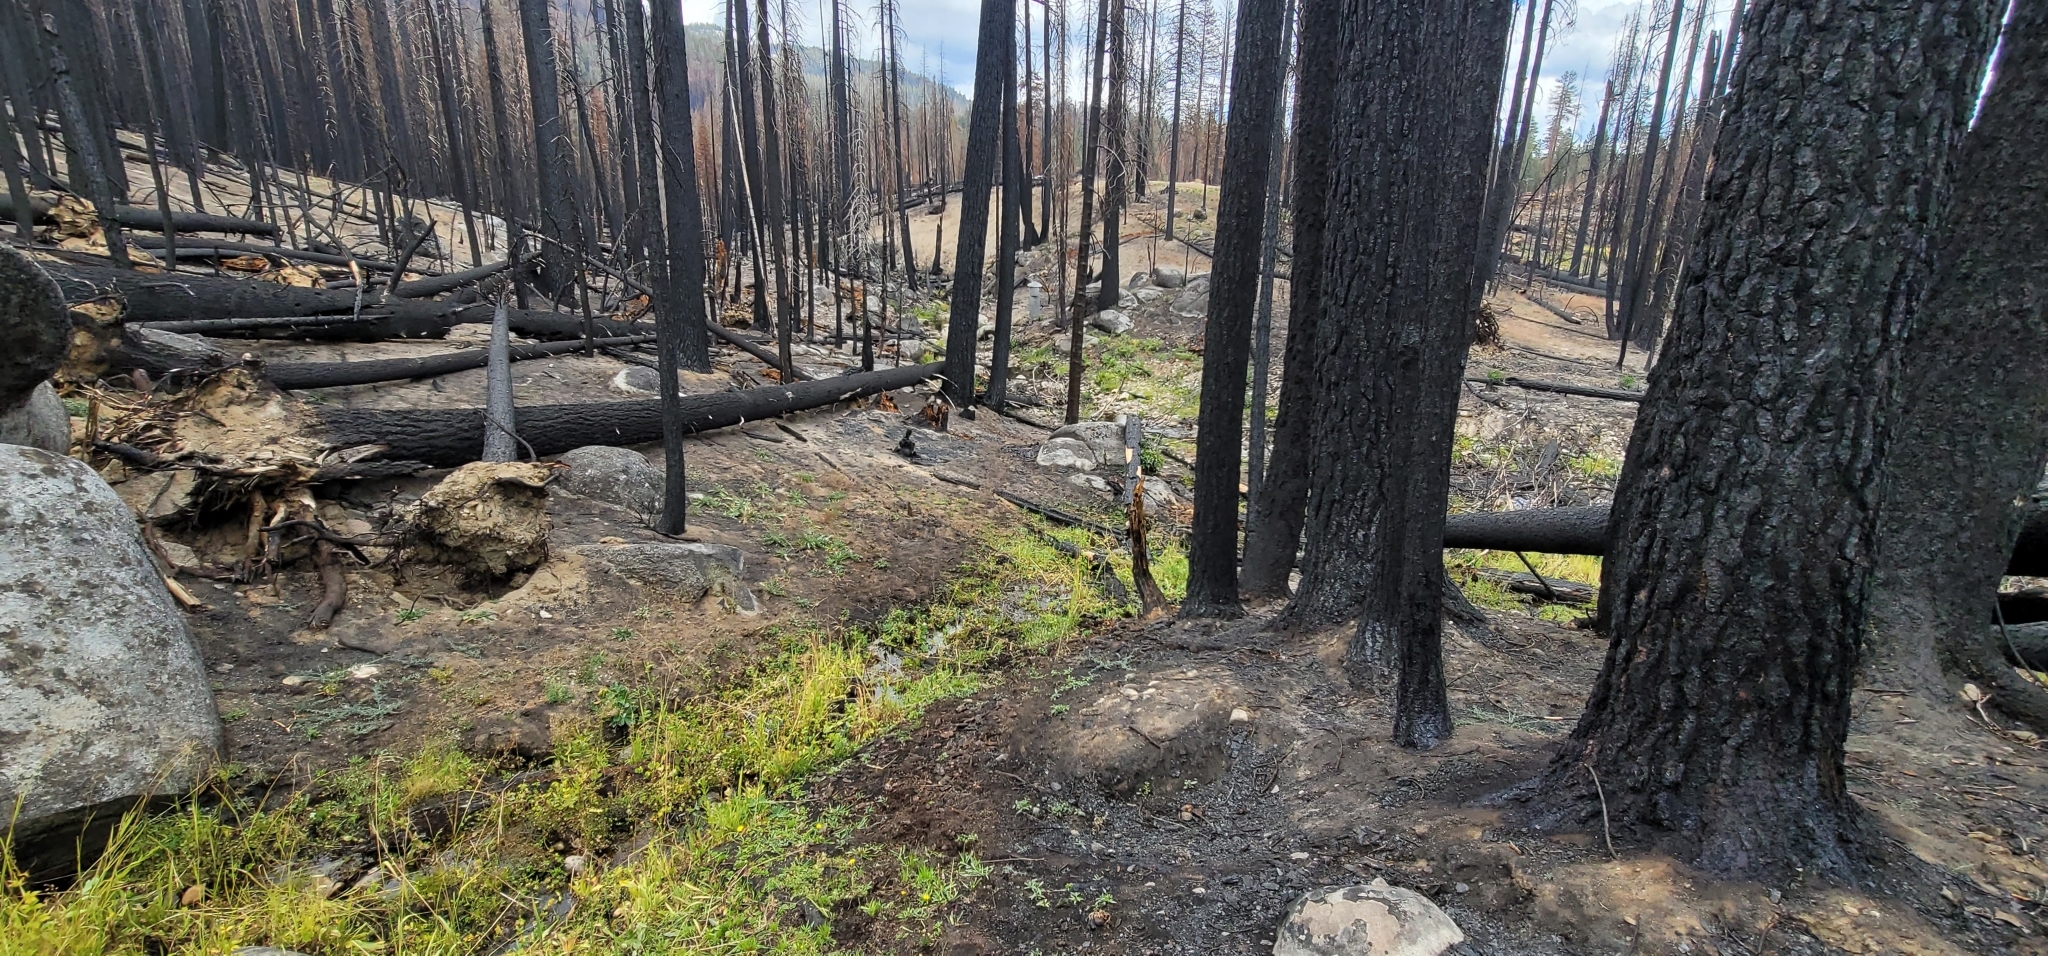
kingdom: Plantae
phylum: Tracheophyta
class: Liliopsida
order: Poales
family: Poaceae
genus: Cinna
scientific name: Cinna bolanderi
